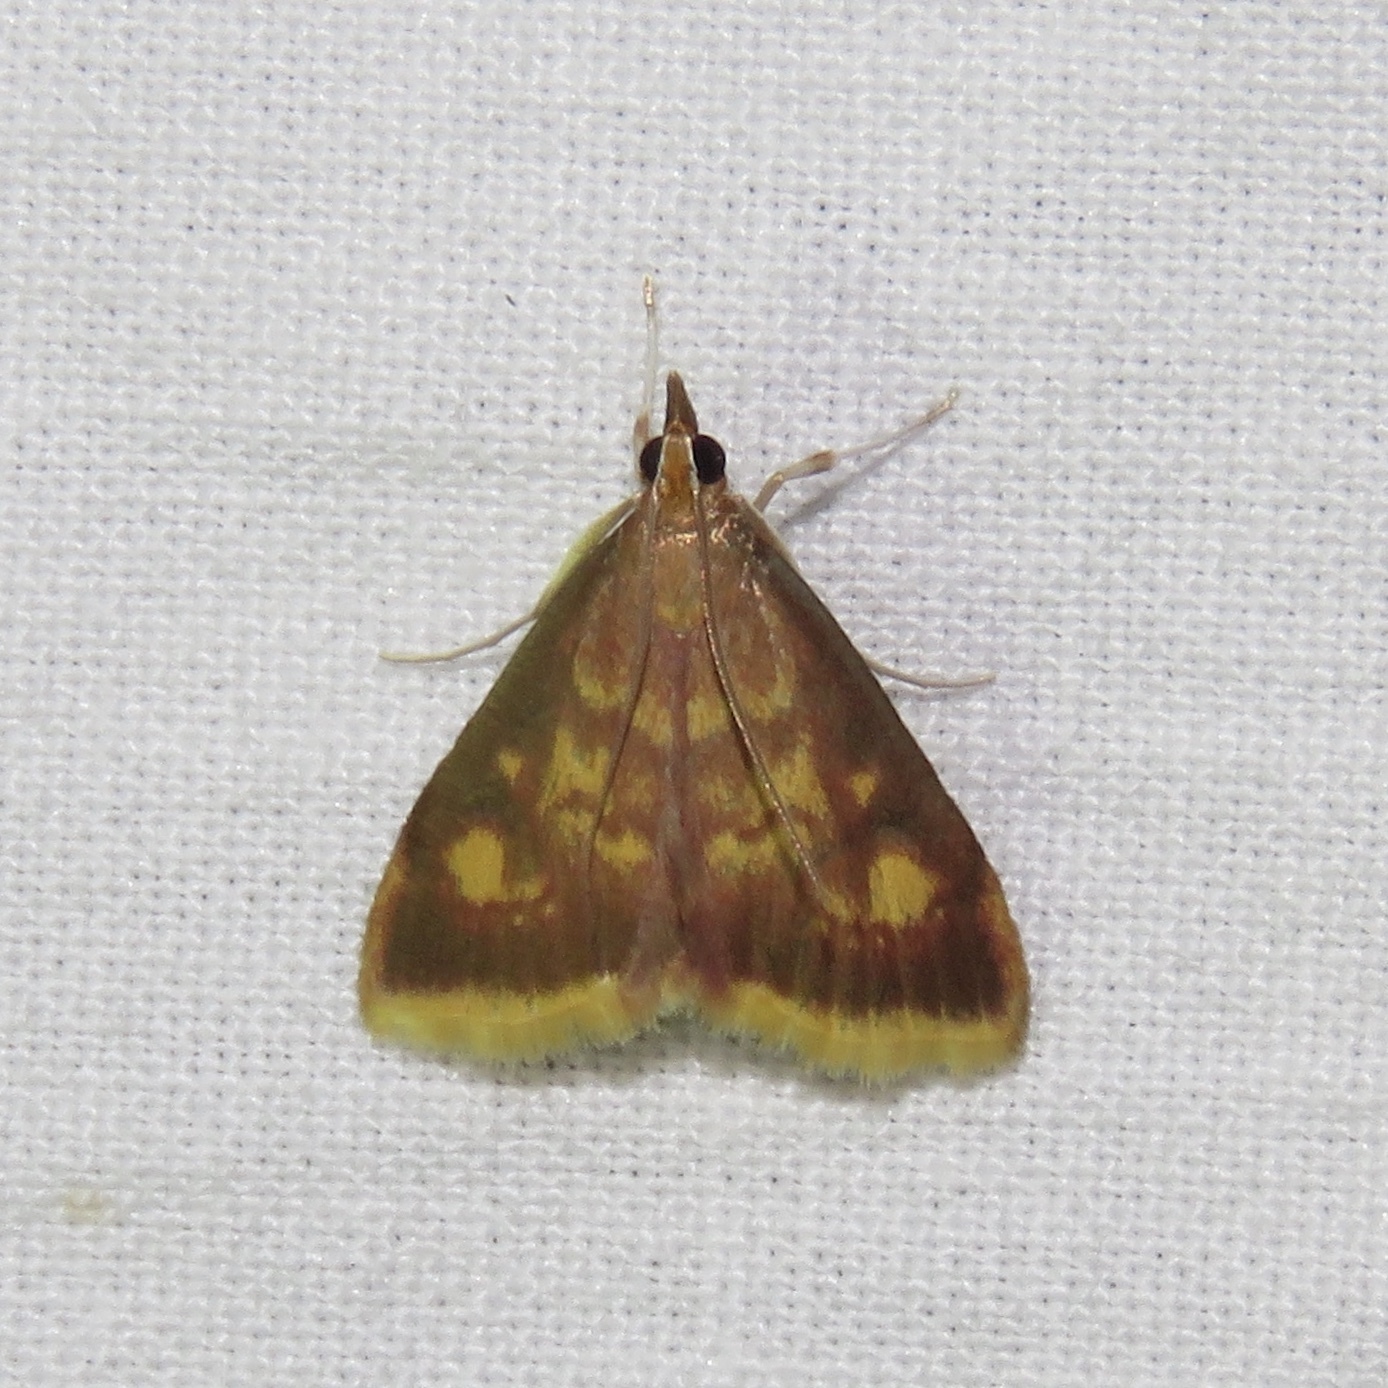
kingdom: Animalia
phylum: Arthropoda
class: Insecta
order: Lepidoptera
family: Crambidae
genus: Pyrausta
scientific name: Pyrausta acrionalis
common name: Mint-loving pyrausta moth
